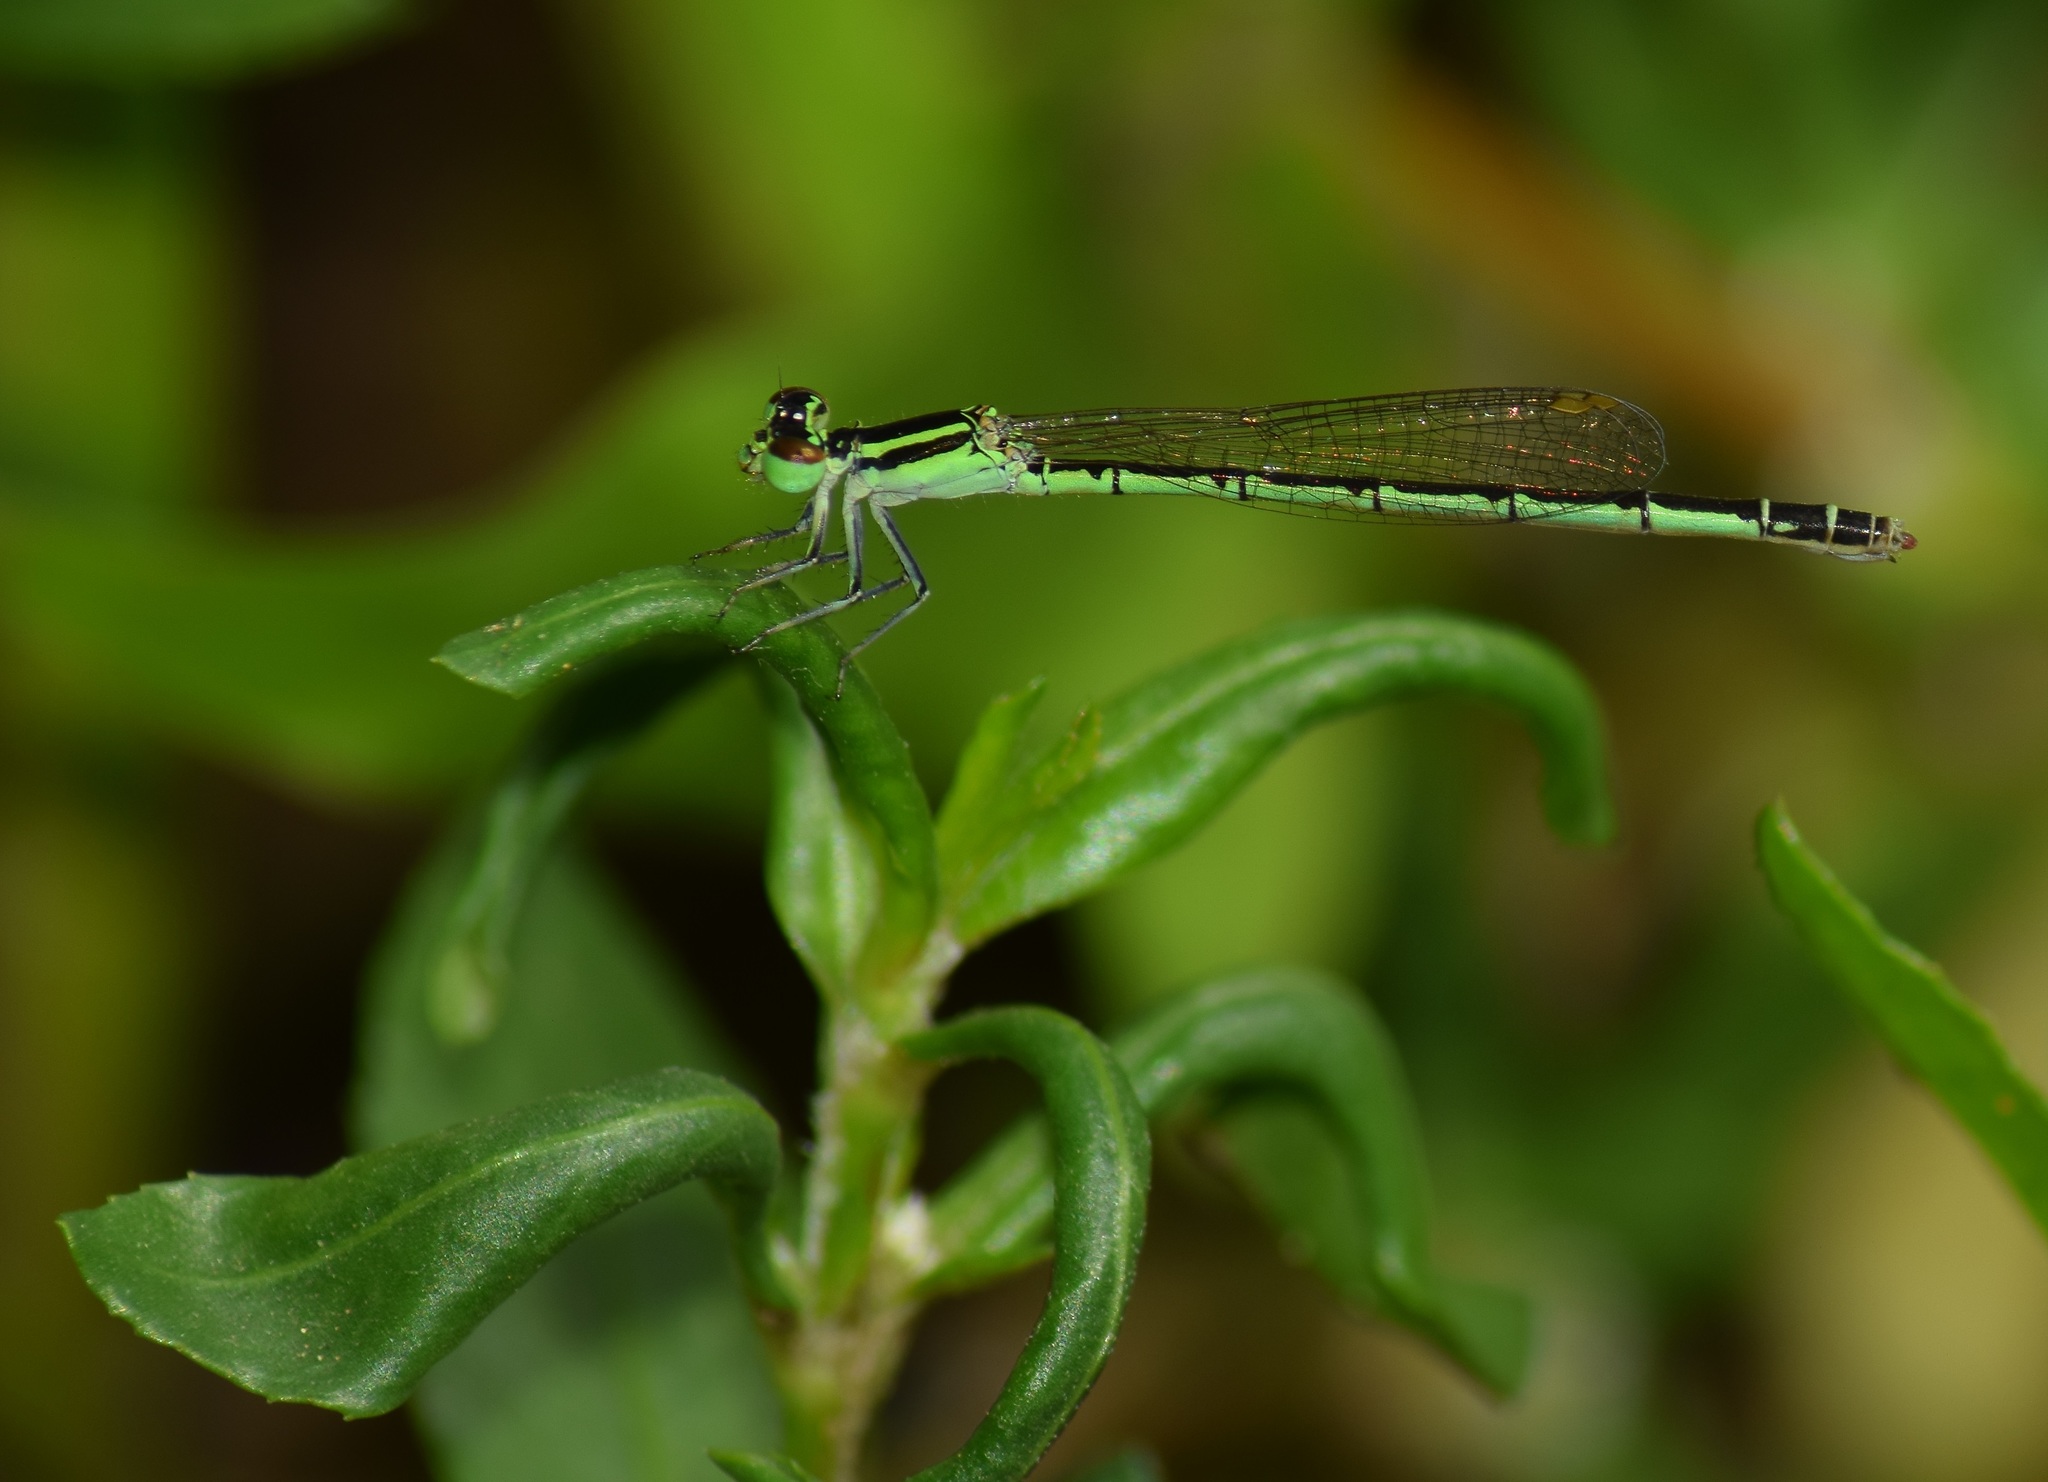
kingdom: Animalia
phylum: Arthropoda
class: Insecta
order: Odonata
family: Coenagrionidae
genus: Agriocnemis
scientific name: Agriocnemis keralensis
